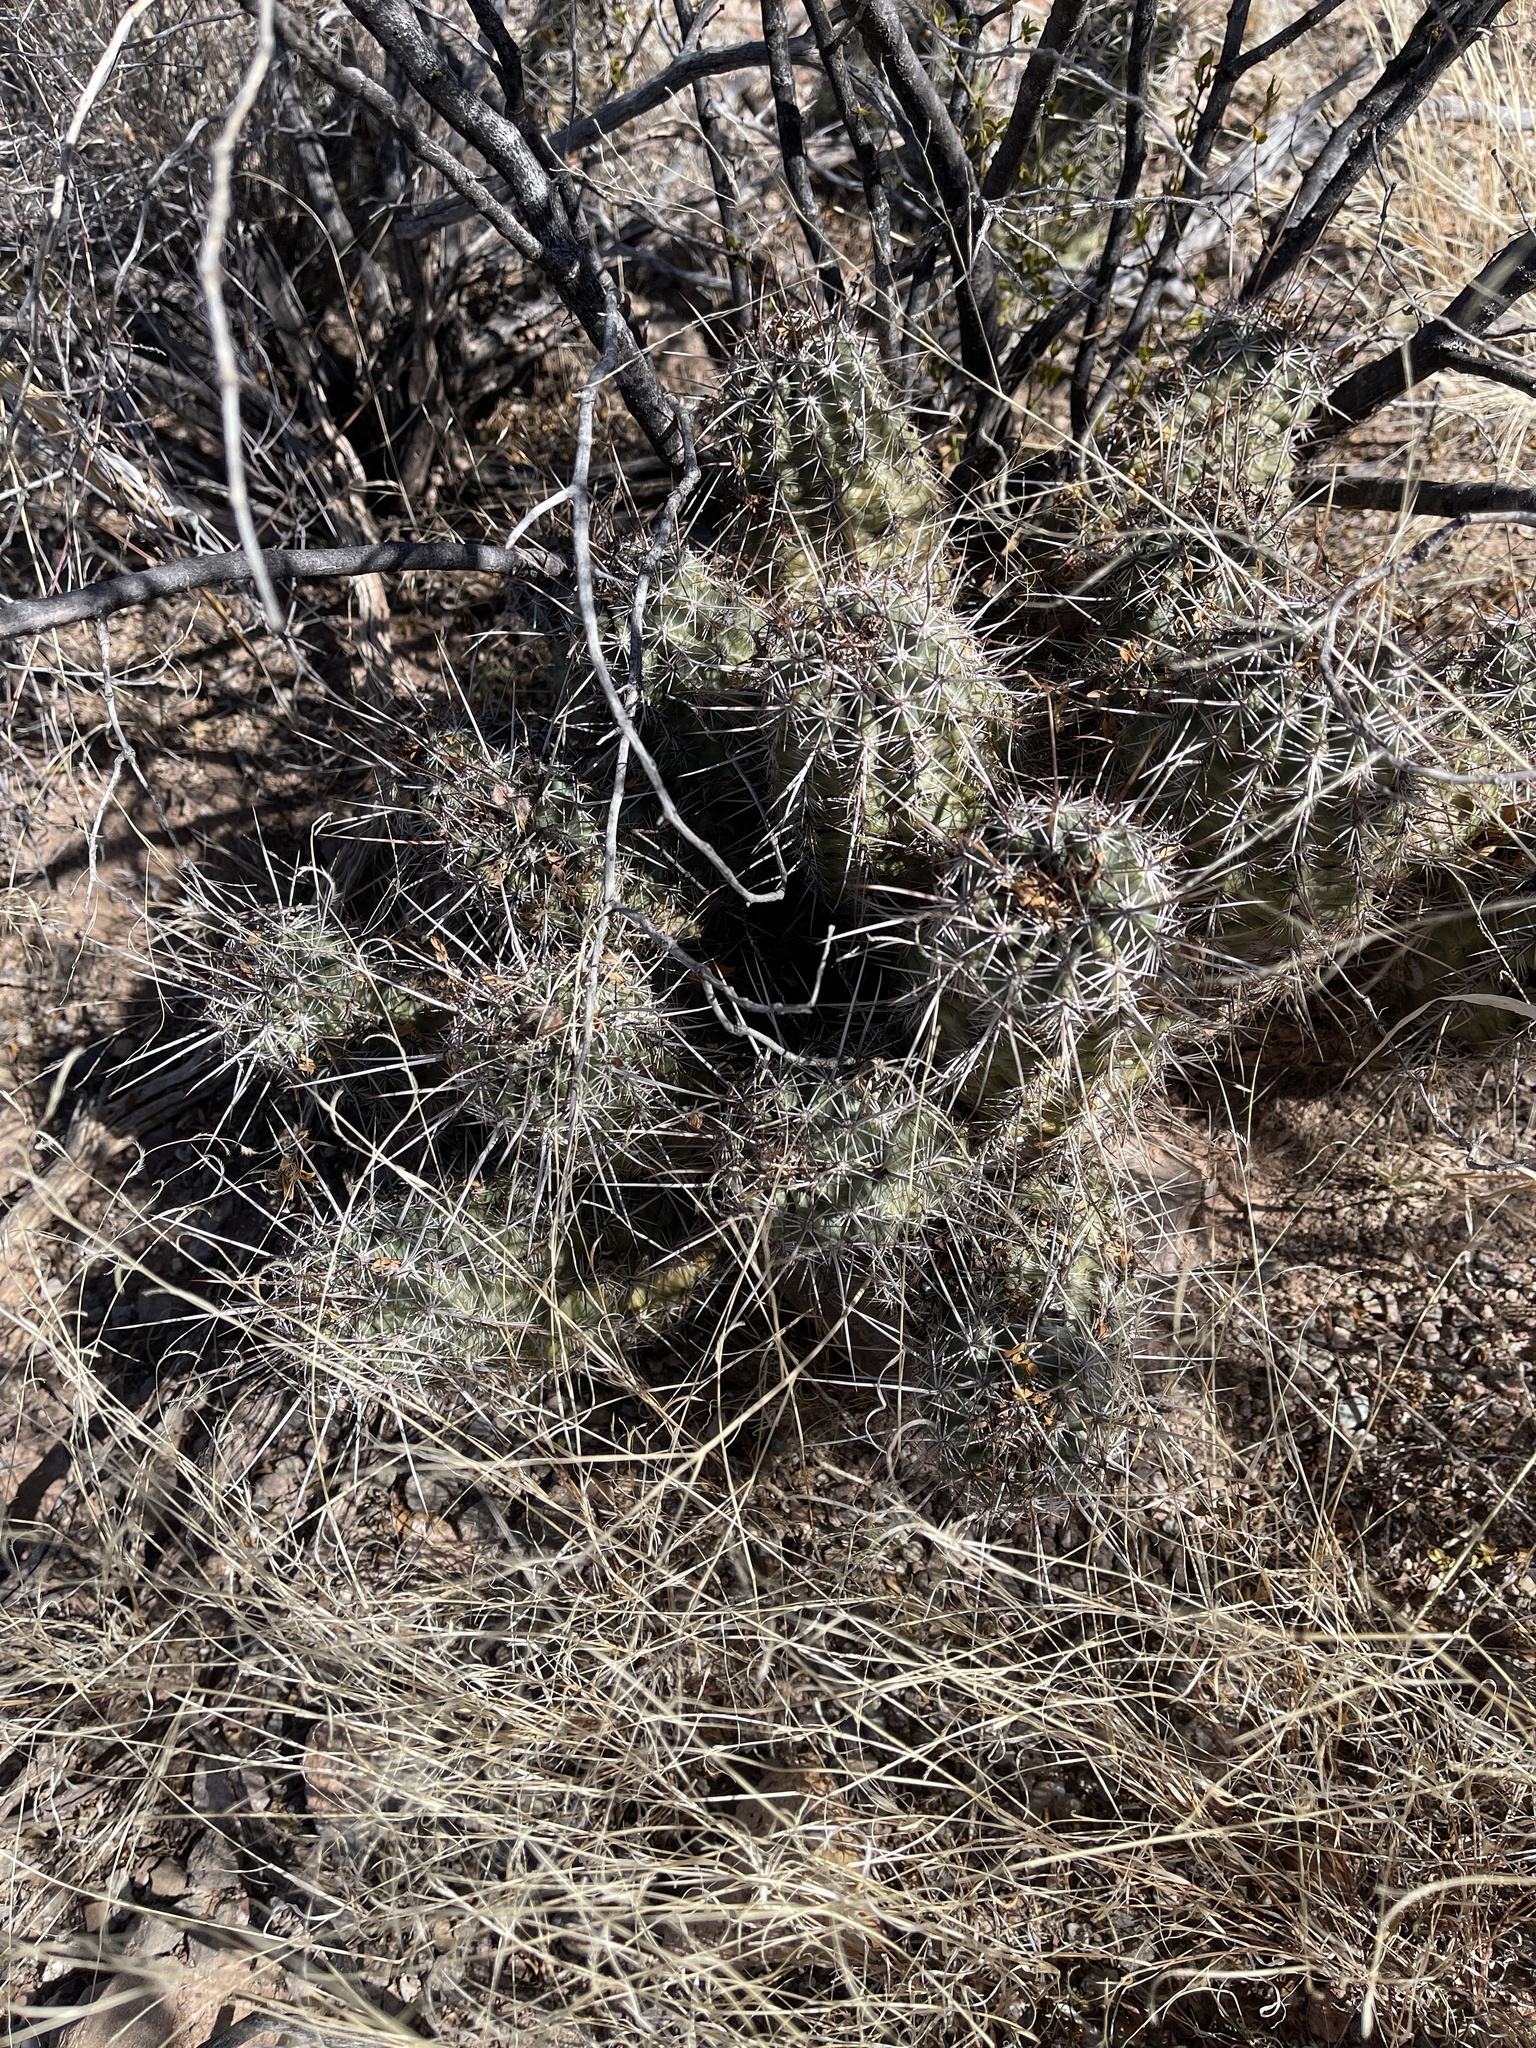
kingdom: Plantae
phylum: Tracheophyta
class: Magnoliopsida
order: Caryophyllales
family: Cactaceae
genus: Echinocereus
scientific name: Echinocereus fasciculatus
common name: Bundle hedgehog
